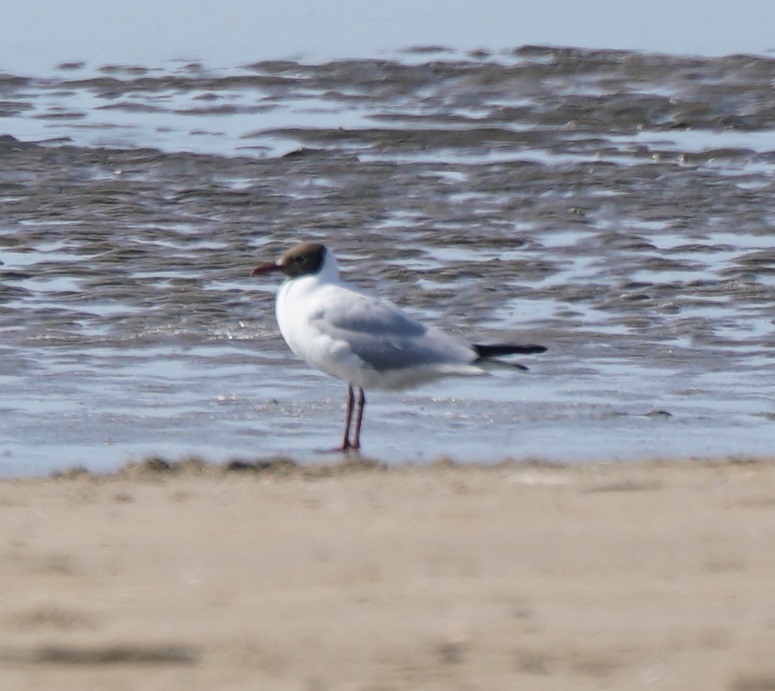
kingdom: Animalia
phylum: Chordata
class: Aves
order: Charadriiformes
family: Laridae
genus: Chroicocephalus
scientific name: Chroicocephalus ridibundus
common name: Black-headed gull
